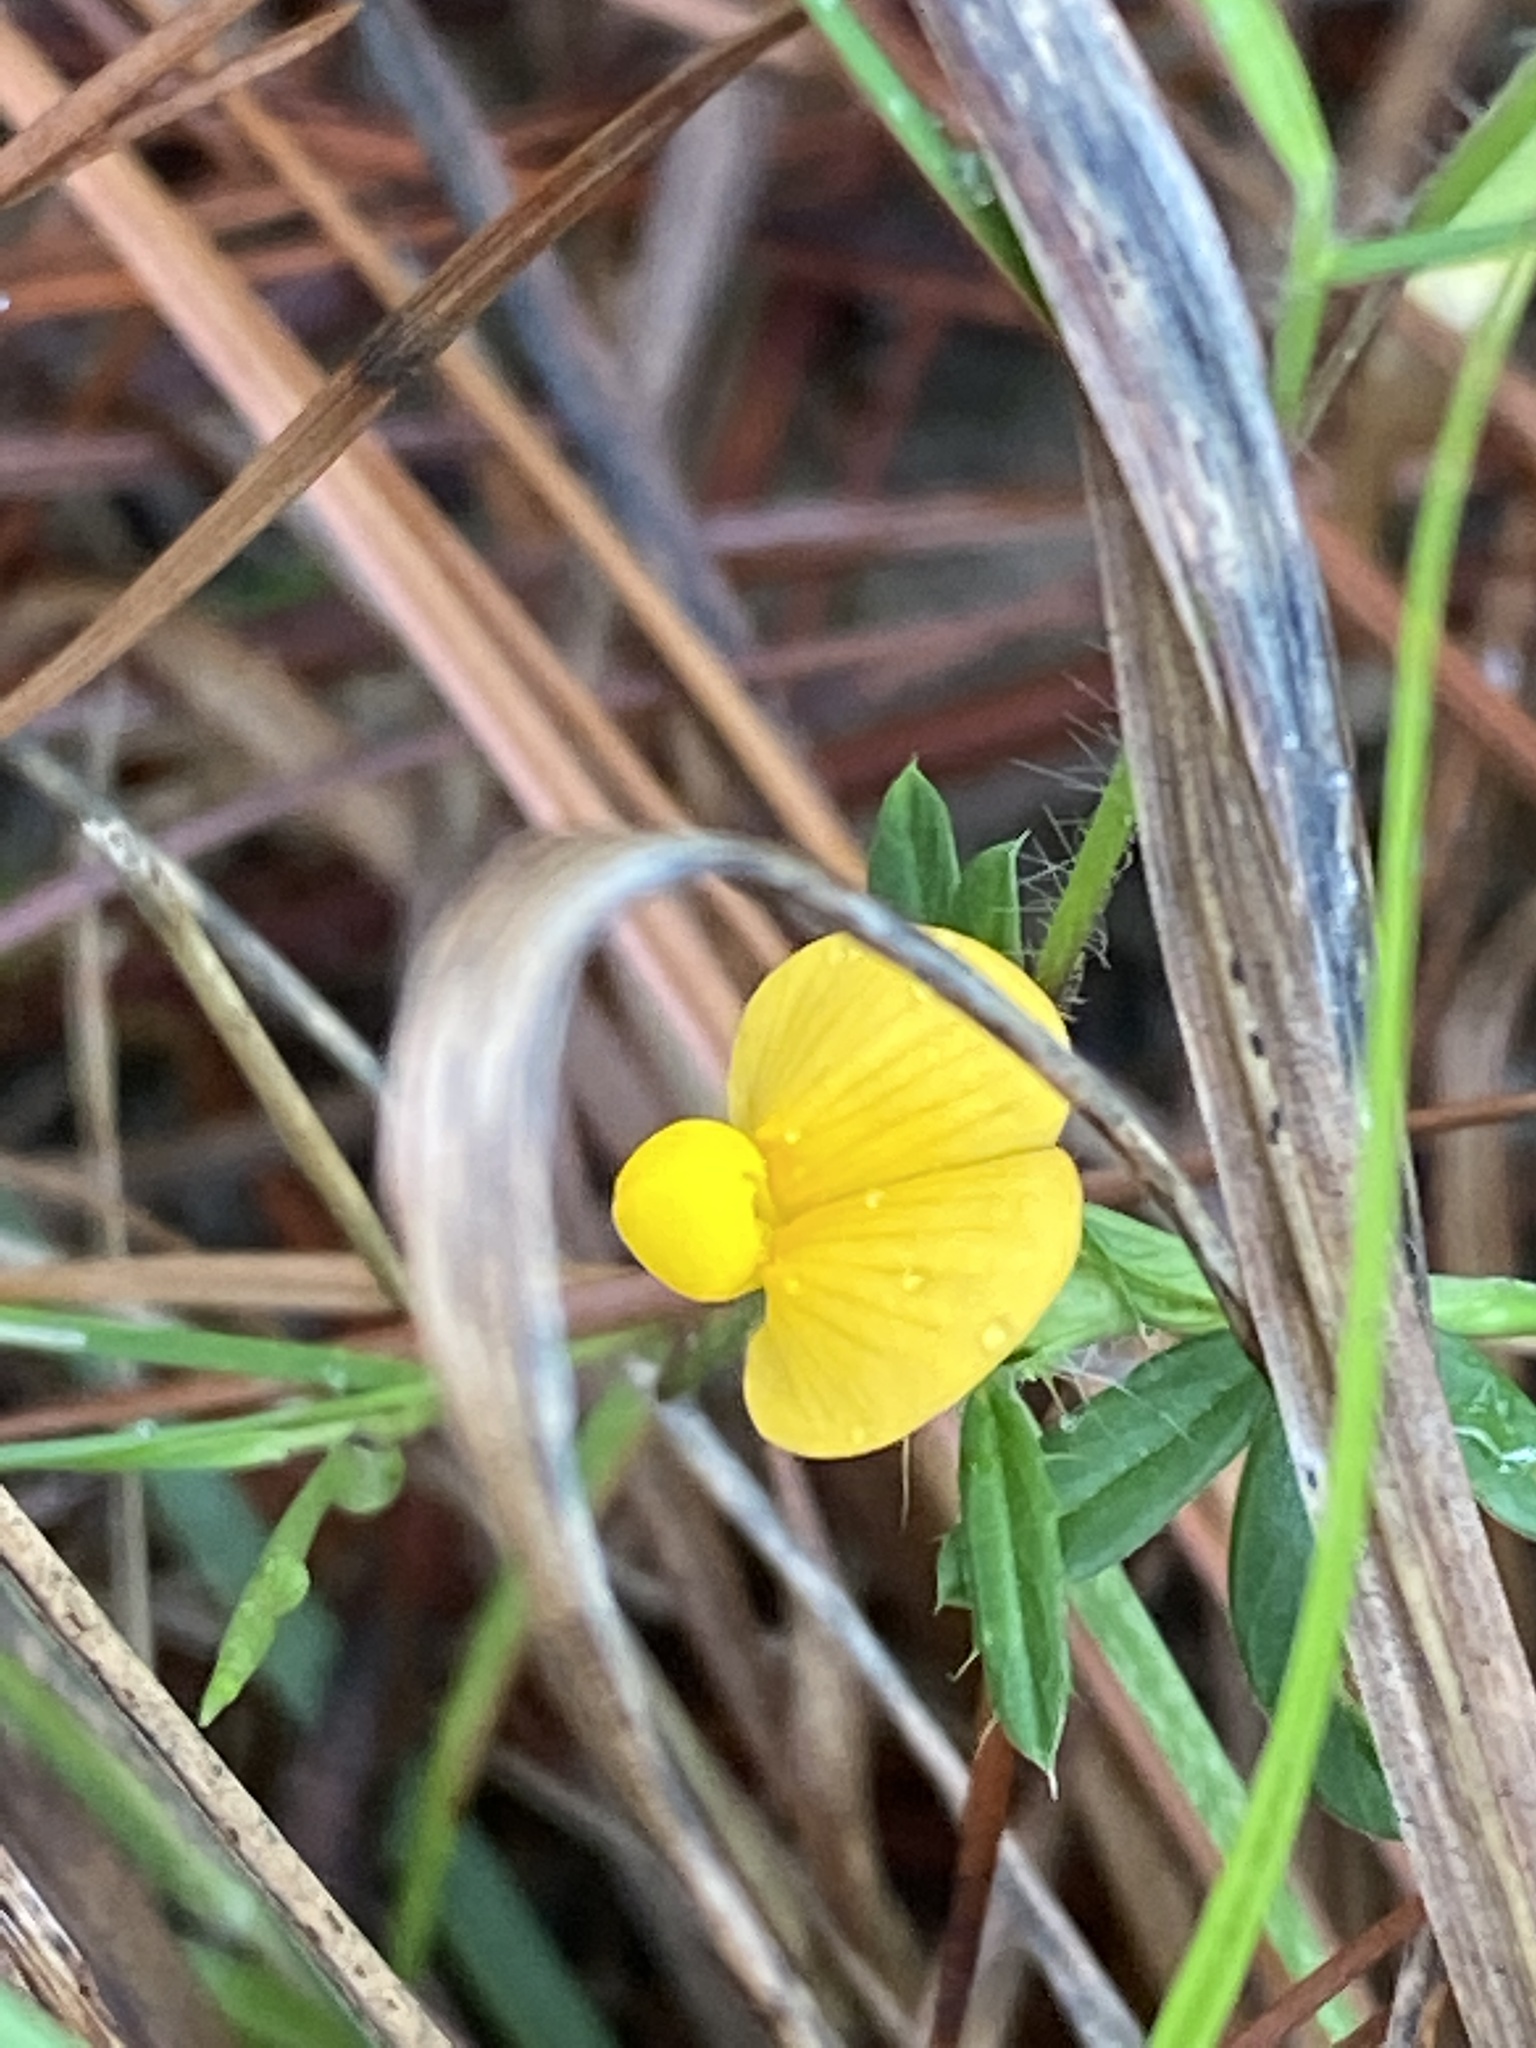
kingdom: Plantae
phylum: Tracheophyta
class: Magnoliopsida
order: Fabales
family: Fabaceae
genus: Stylosanthes
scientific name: Stylosanthes biflora
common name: Two-flower pencil-flower
